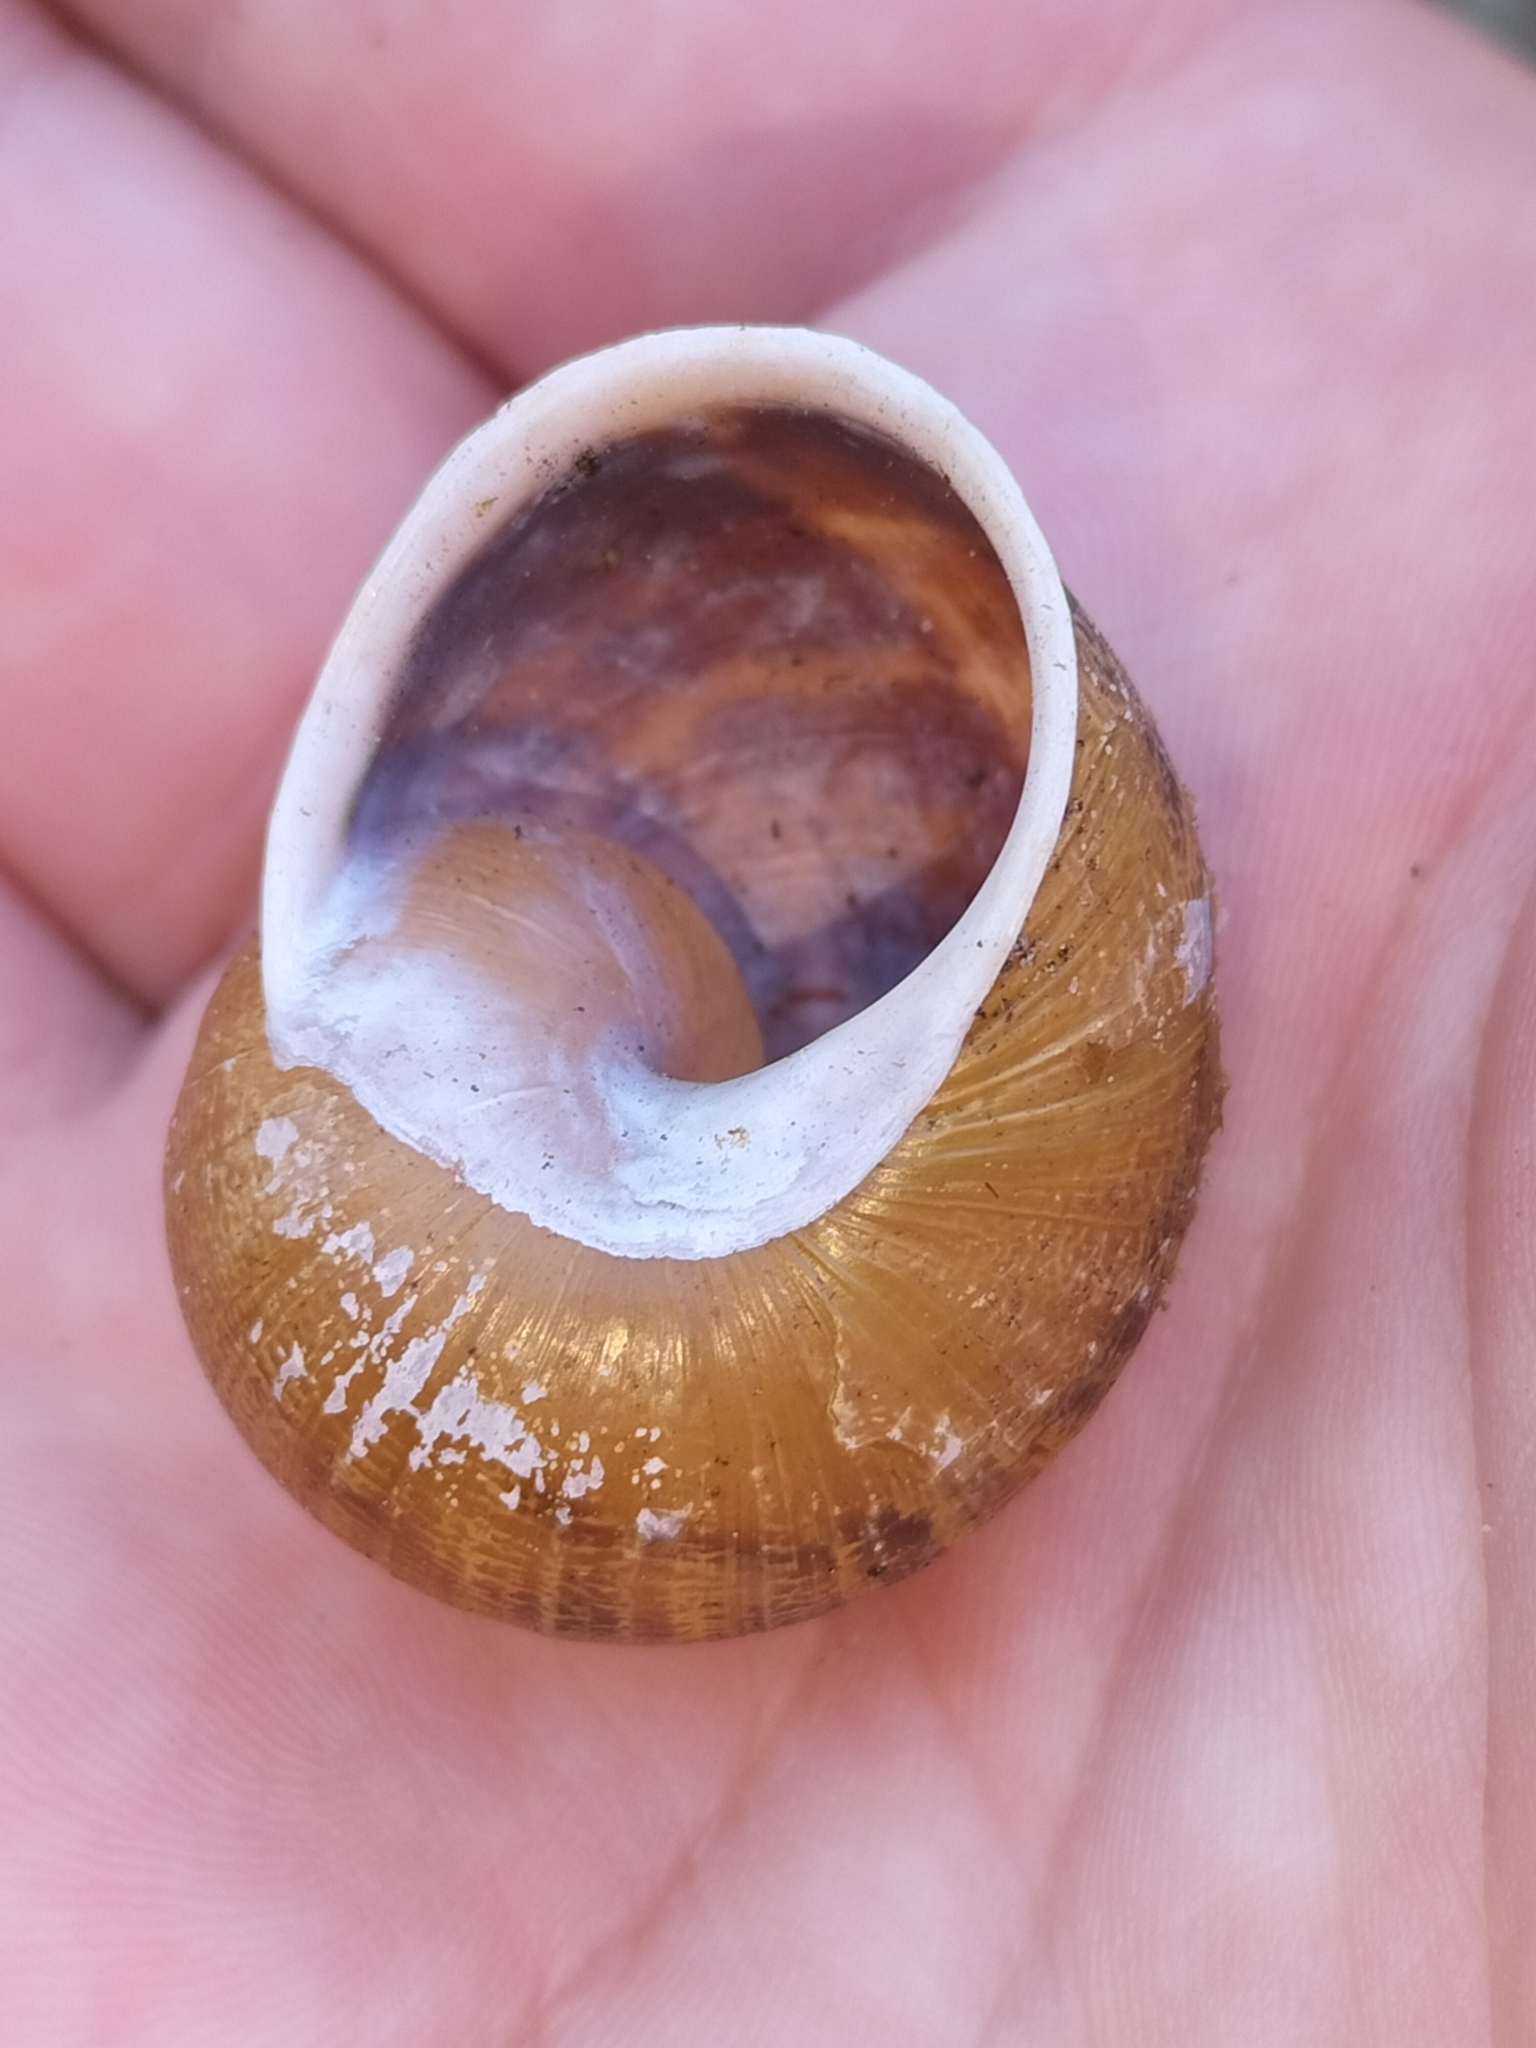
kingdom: Animalia
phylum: Mollusca
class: Gastropoda
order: Stylommatophora
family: Helicidae
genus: Cornu
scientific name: Cornu aspersum
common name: Brown garden snail
